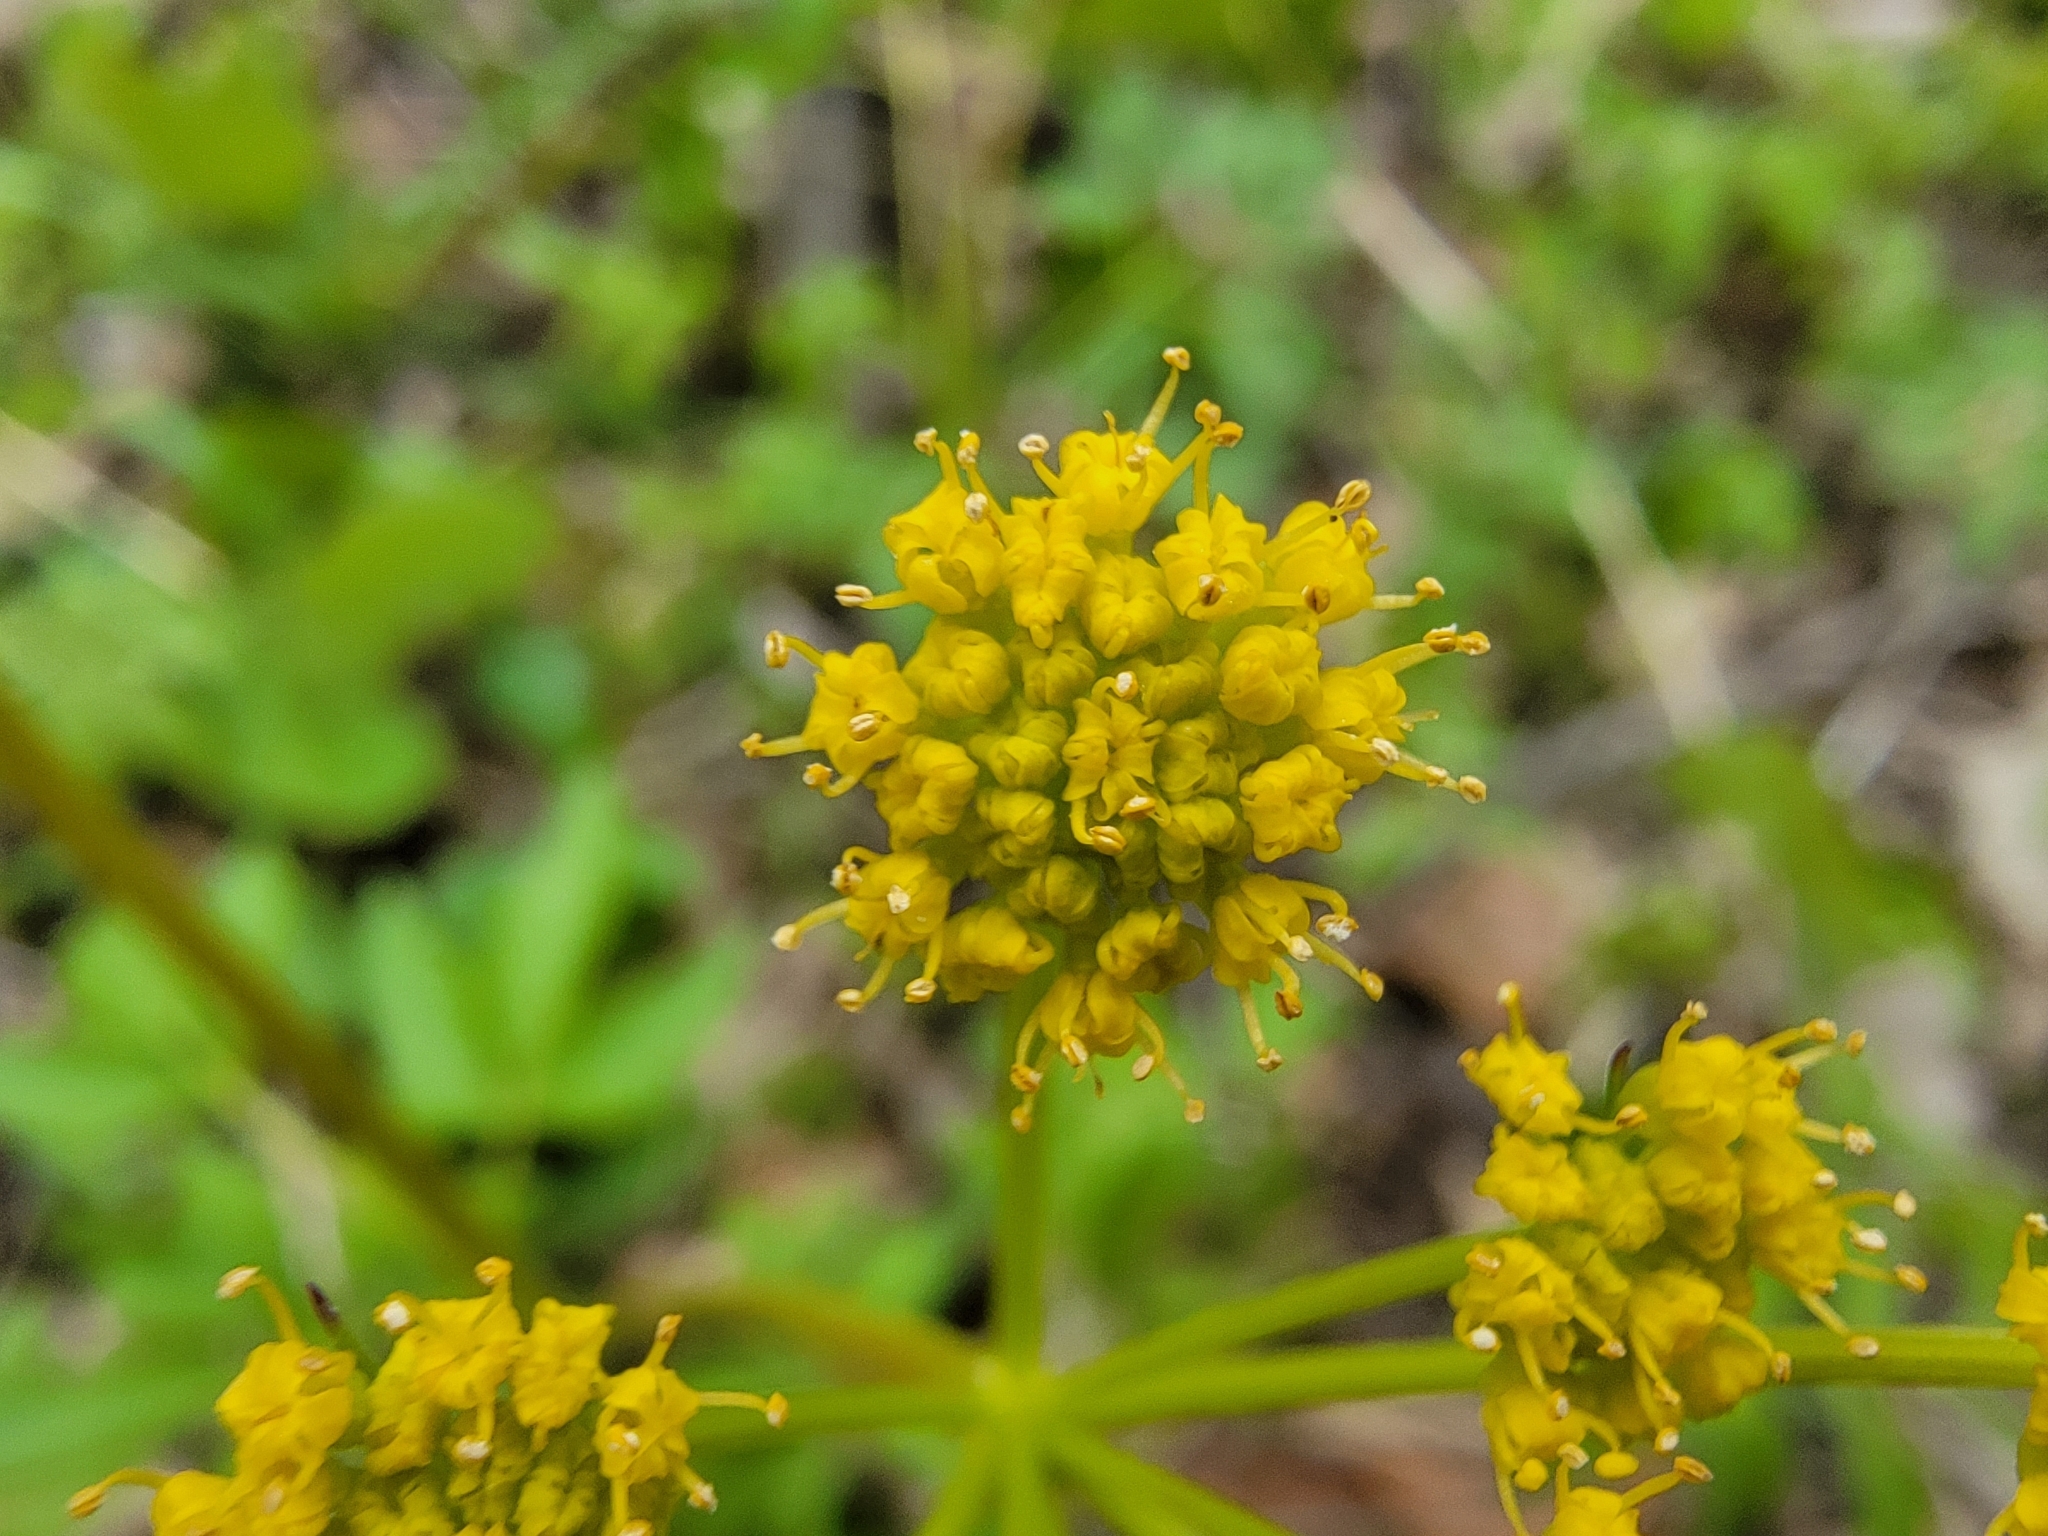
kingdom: Plantae
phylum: Tracheophyta
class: Magnoliopsida
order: Apiales
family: Apiaceae
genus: Zizia
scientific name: Zizia aurea
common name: Golden alexanders
